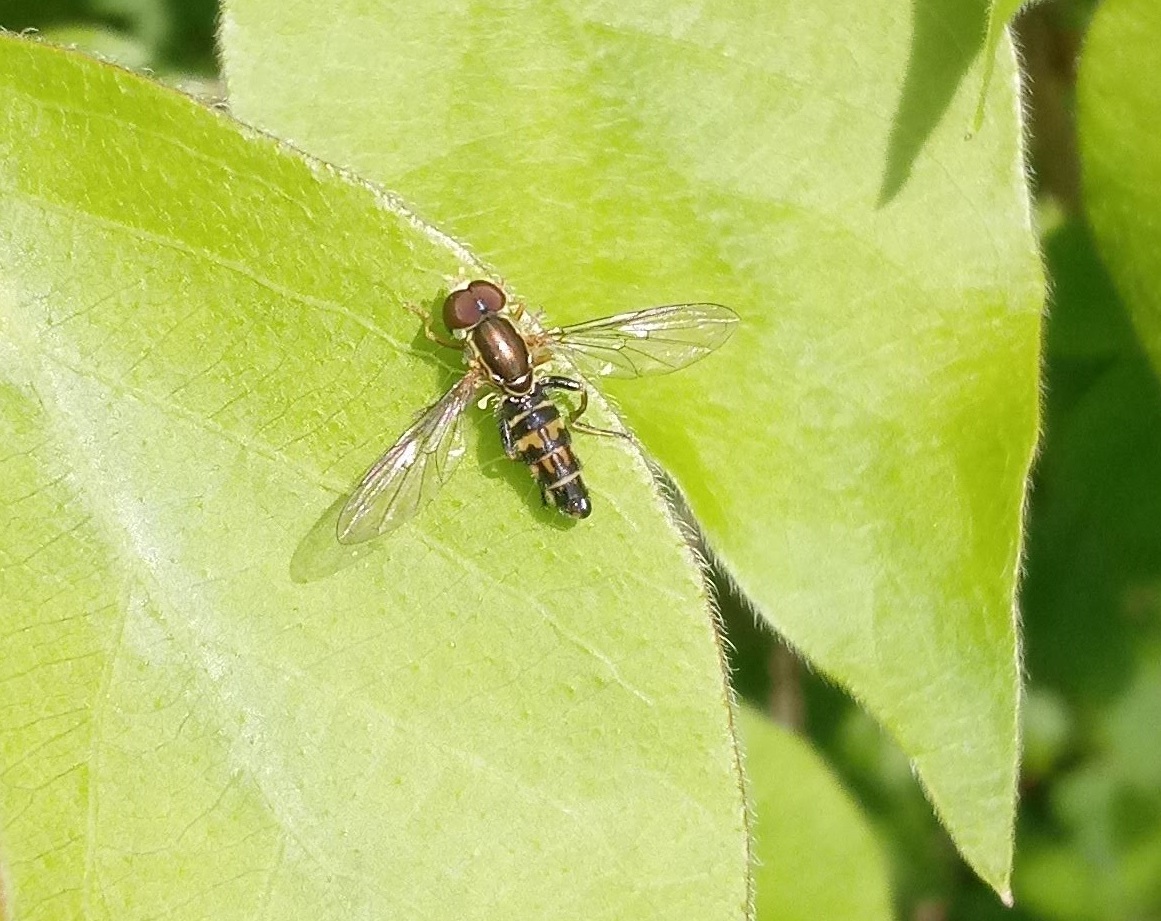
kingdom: Animalia
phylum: Arthropoda
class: Insecta
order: Diptera
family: Syrphidae
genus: Toxomerus
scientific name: Toxomerus geminatus
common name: Eastern calligrapher
